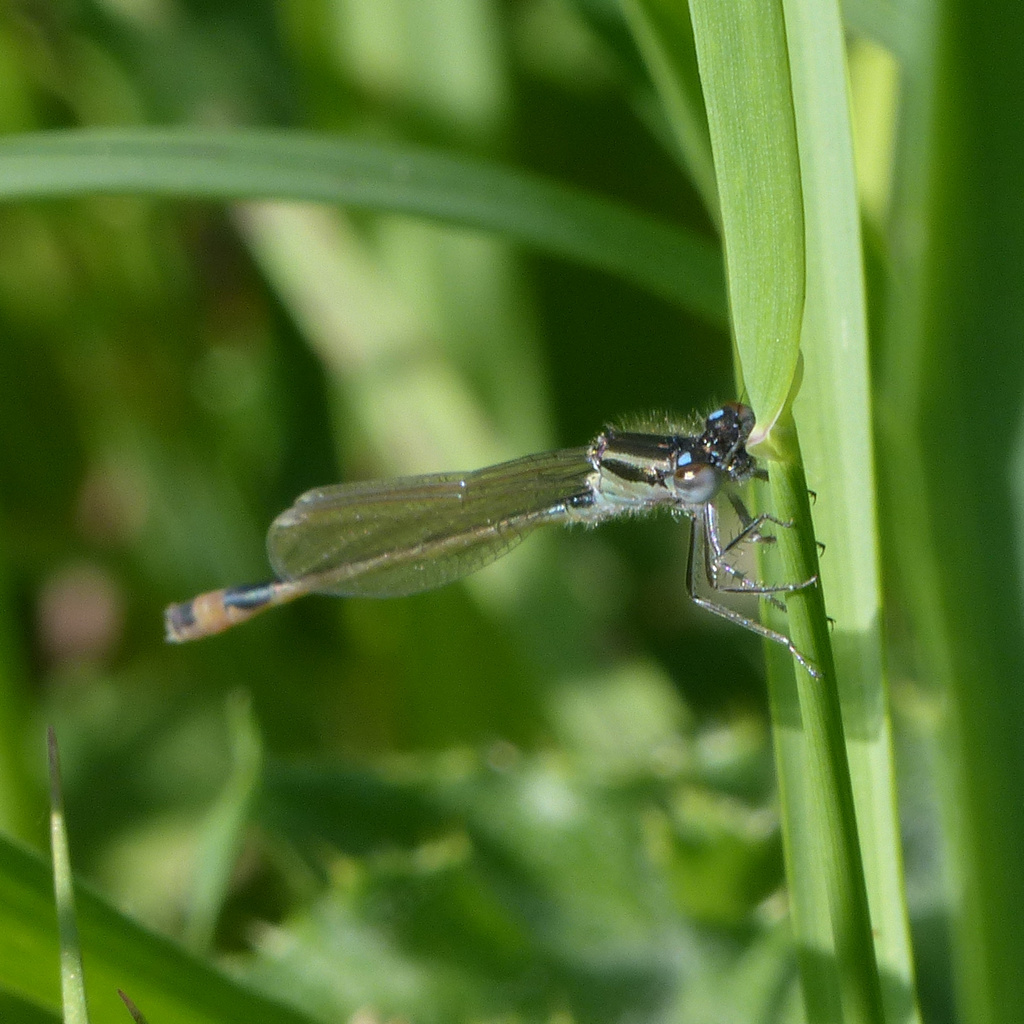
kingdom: Animalia
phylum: Arthropoda
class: Insecta
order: Odonata
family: Coenagrionidae
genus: Ischnura
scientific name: Ischnura elegans
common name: Blue-tailed damselfly
